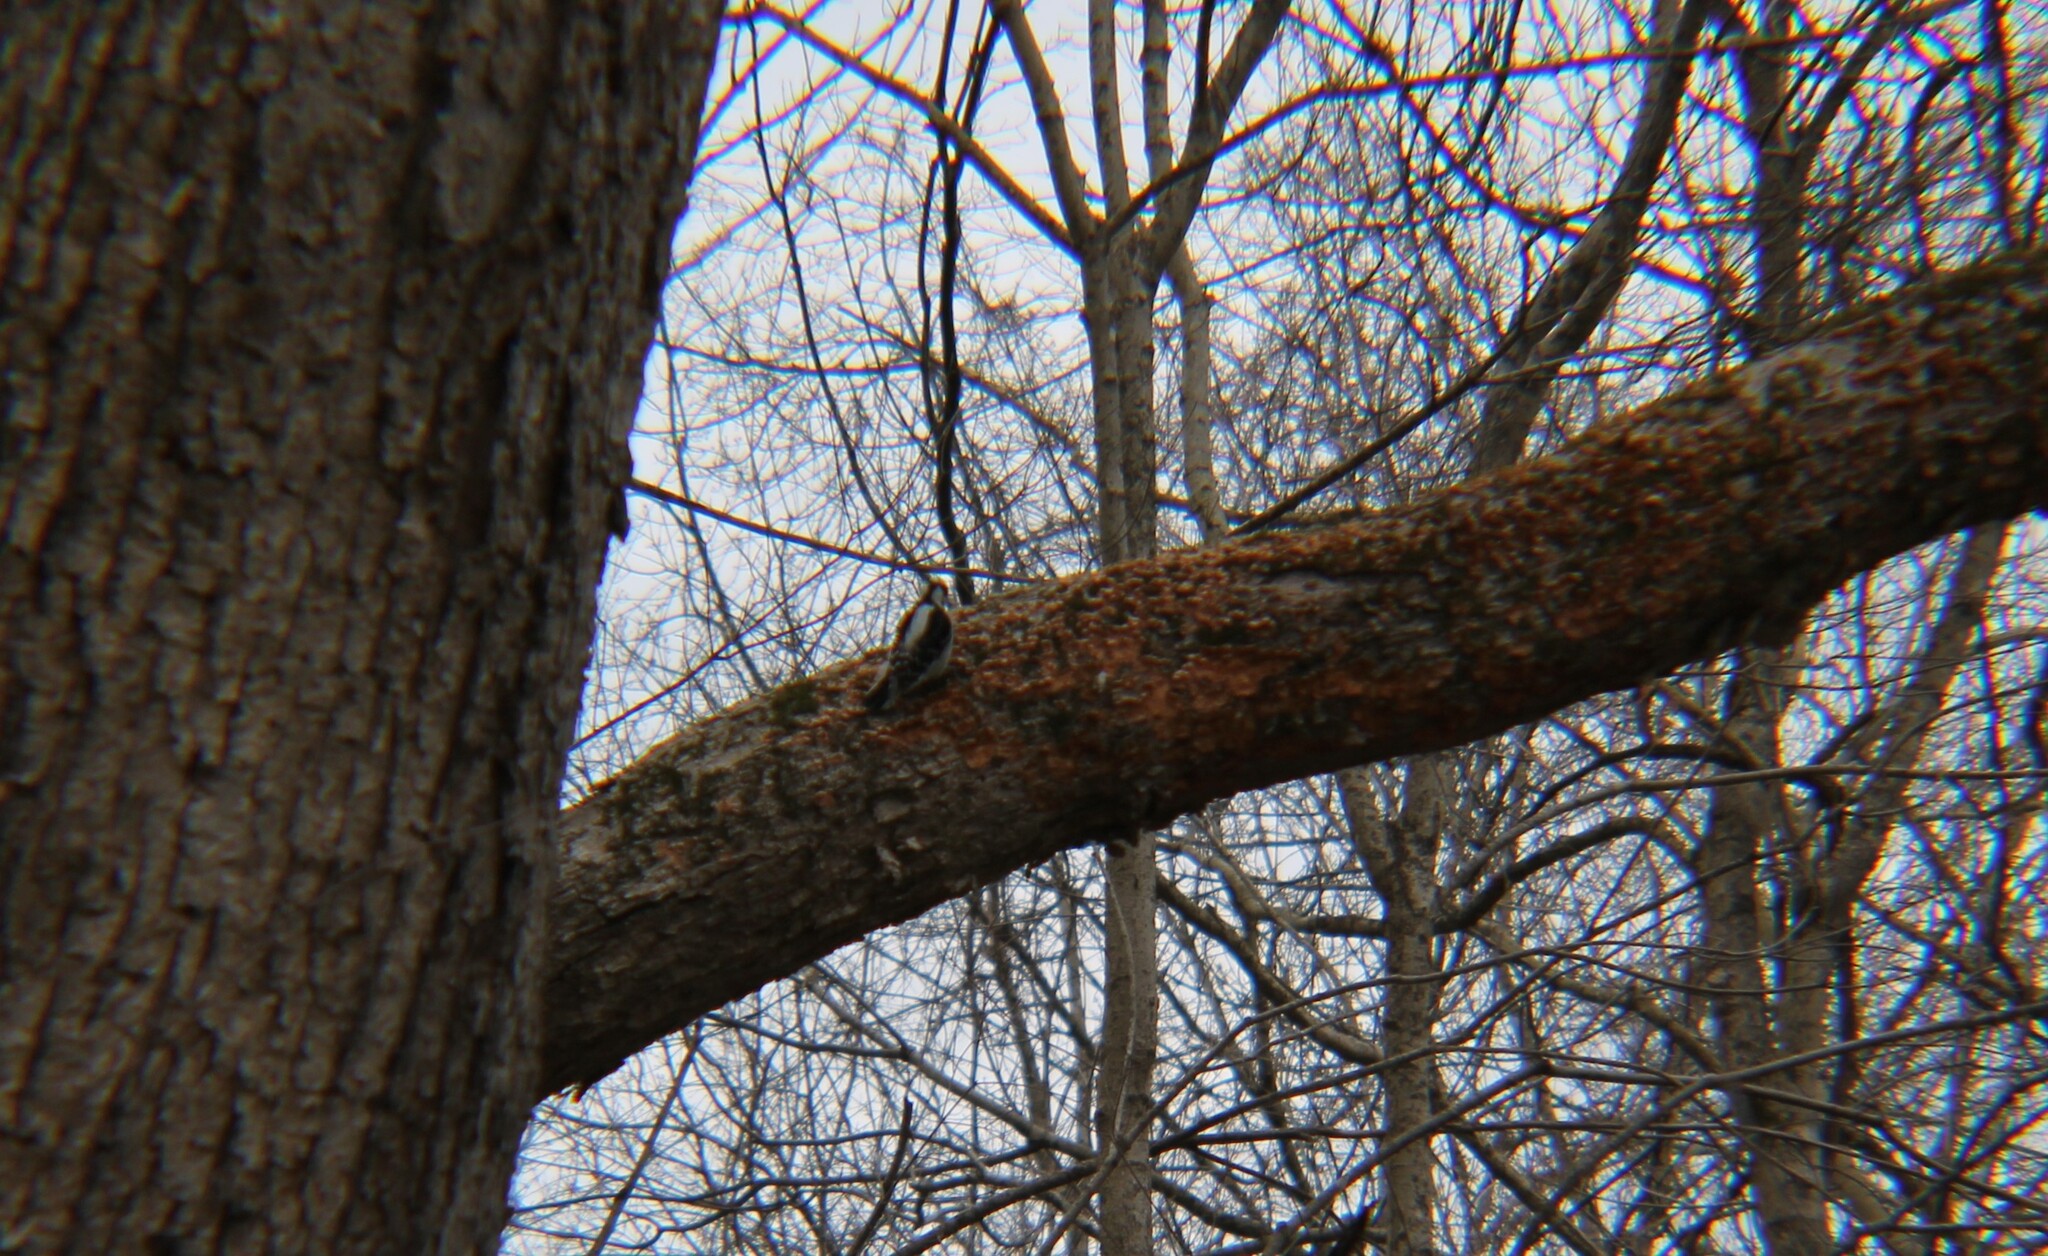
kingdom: Animalia
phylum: Chordata
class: Aves
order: Piciformes
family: Picidae
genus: Dryobates
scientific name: Dryobates pubescens
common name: Downy woodpecker
